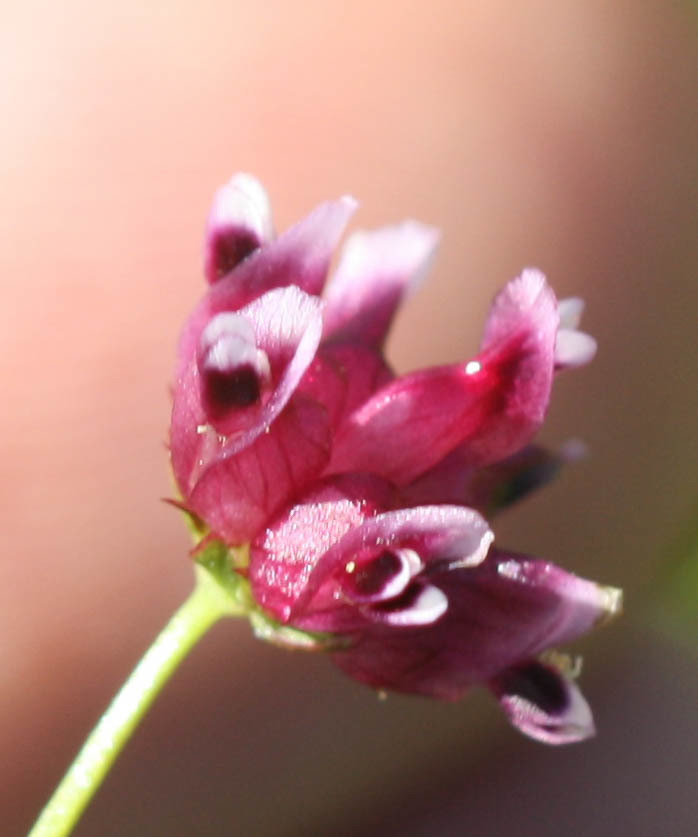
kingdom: Plantae
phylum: Tracheophyta
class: Magnoliopsida
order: Fabales
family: Fabaceae
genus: Trifolium
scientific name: Trifolium depauperatum
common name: Poverty clover
